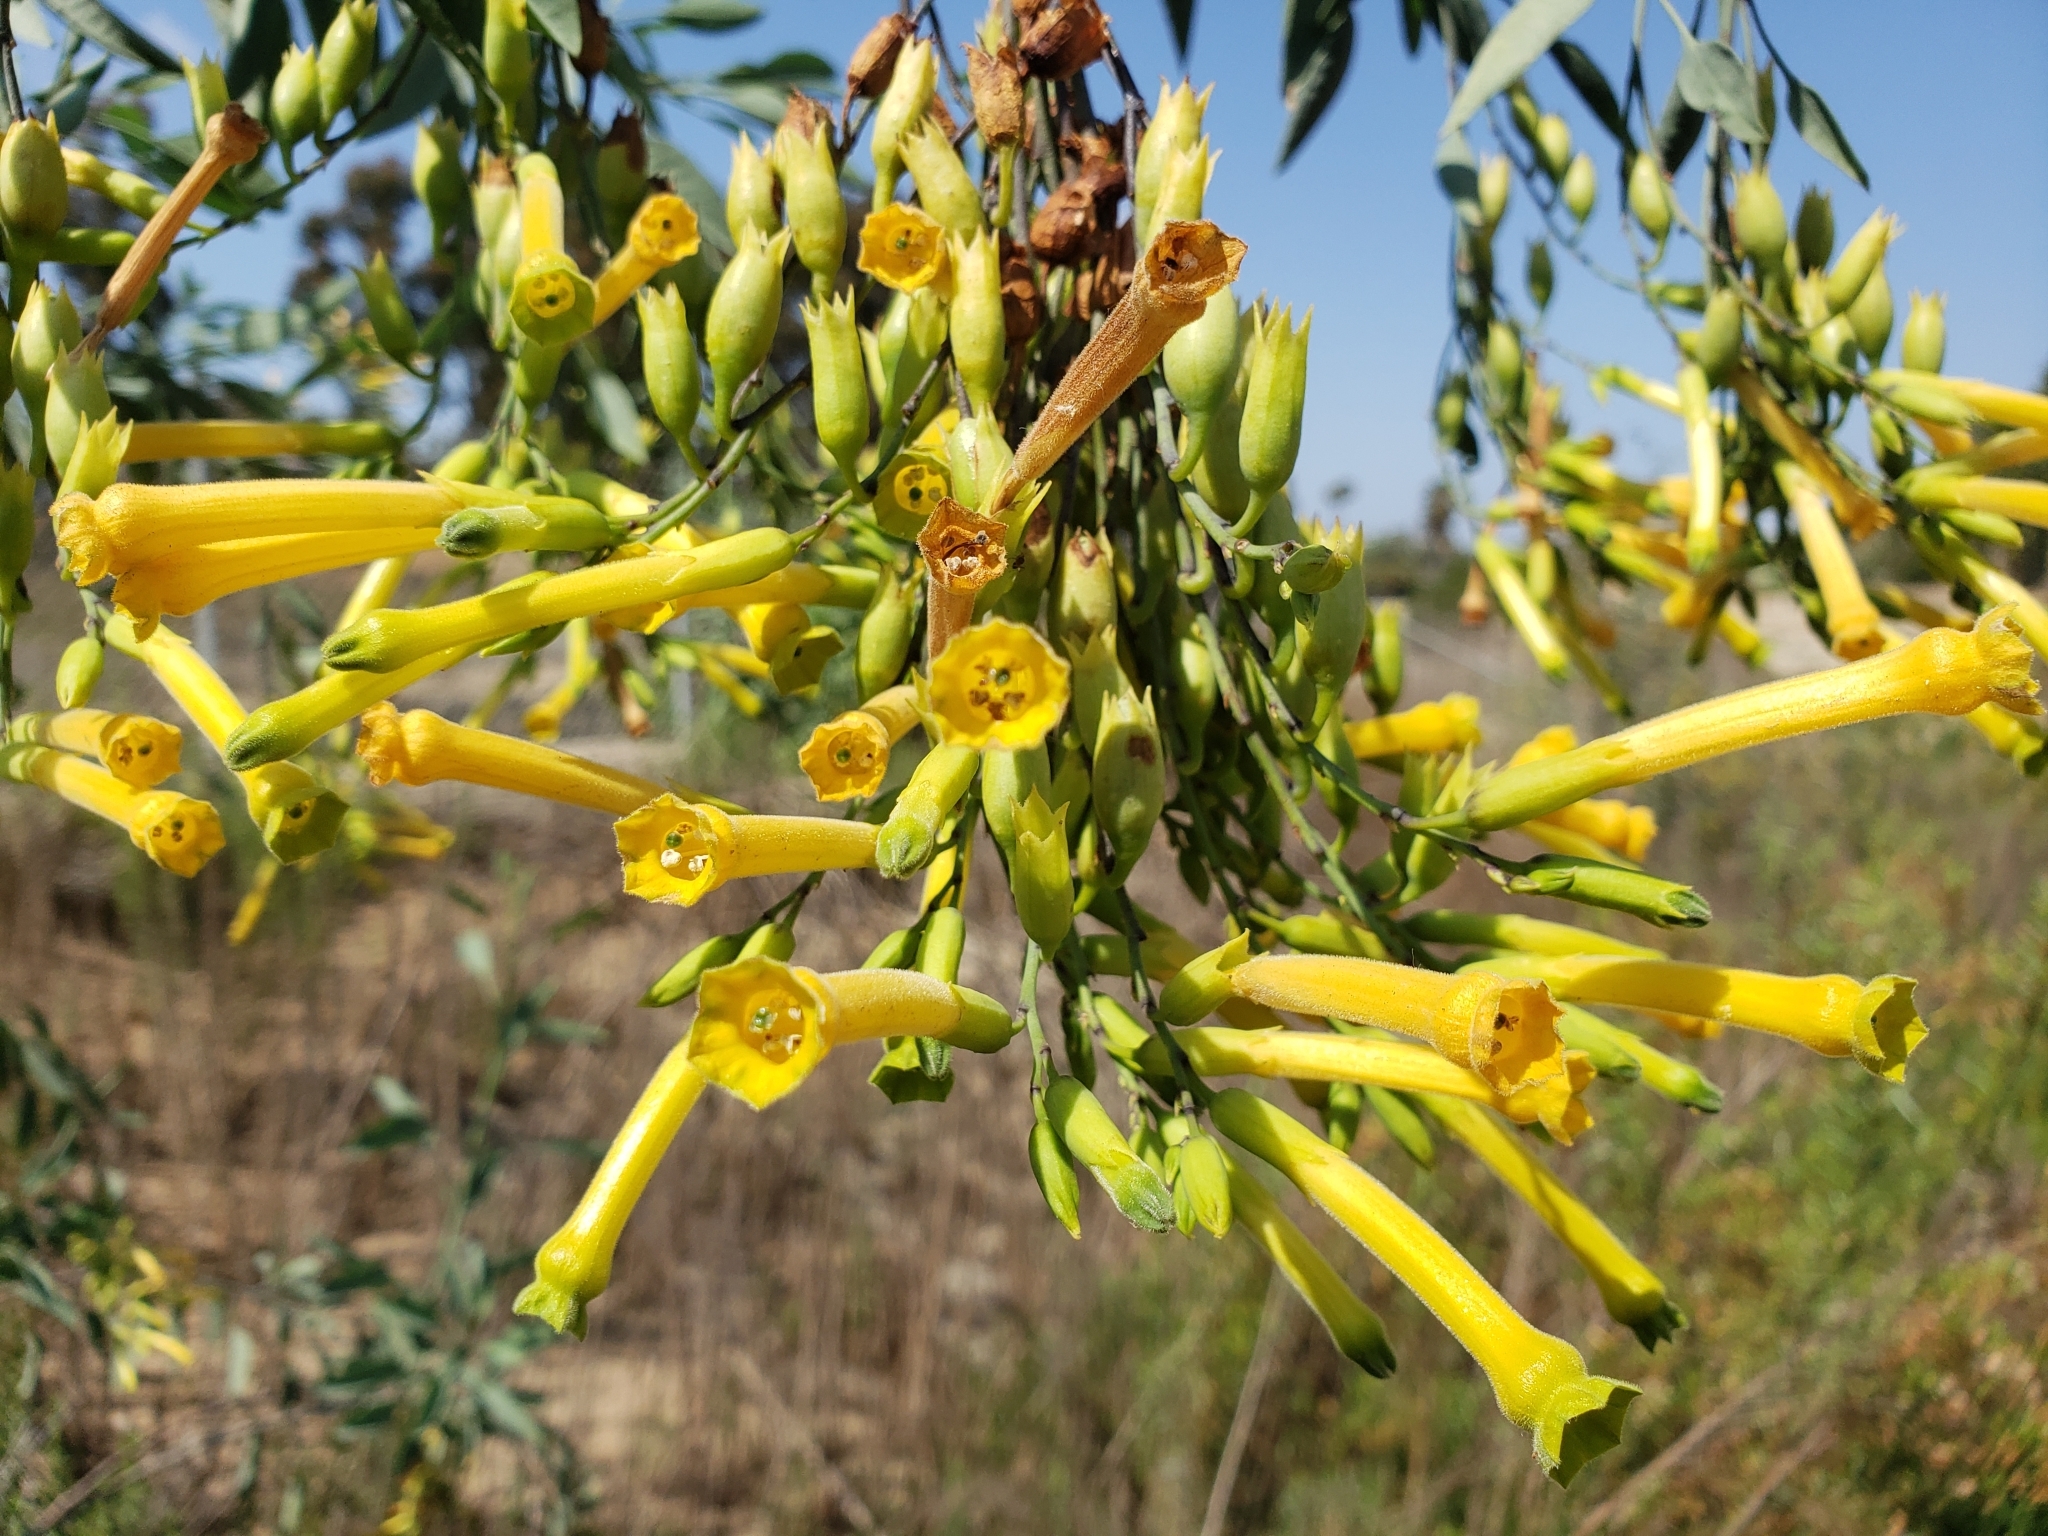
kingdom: Plantae
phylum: Tracheophyta
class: Magnoliopsida
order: Solanales
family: Solanaceae
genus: Nicotiana
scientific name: Nicotiana glauca
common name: Tree tobacco
